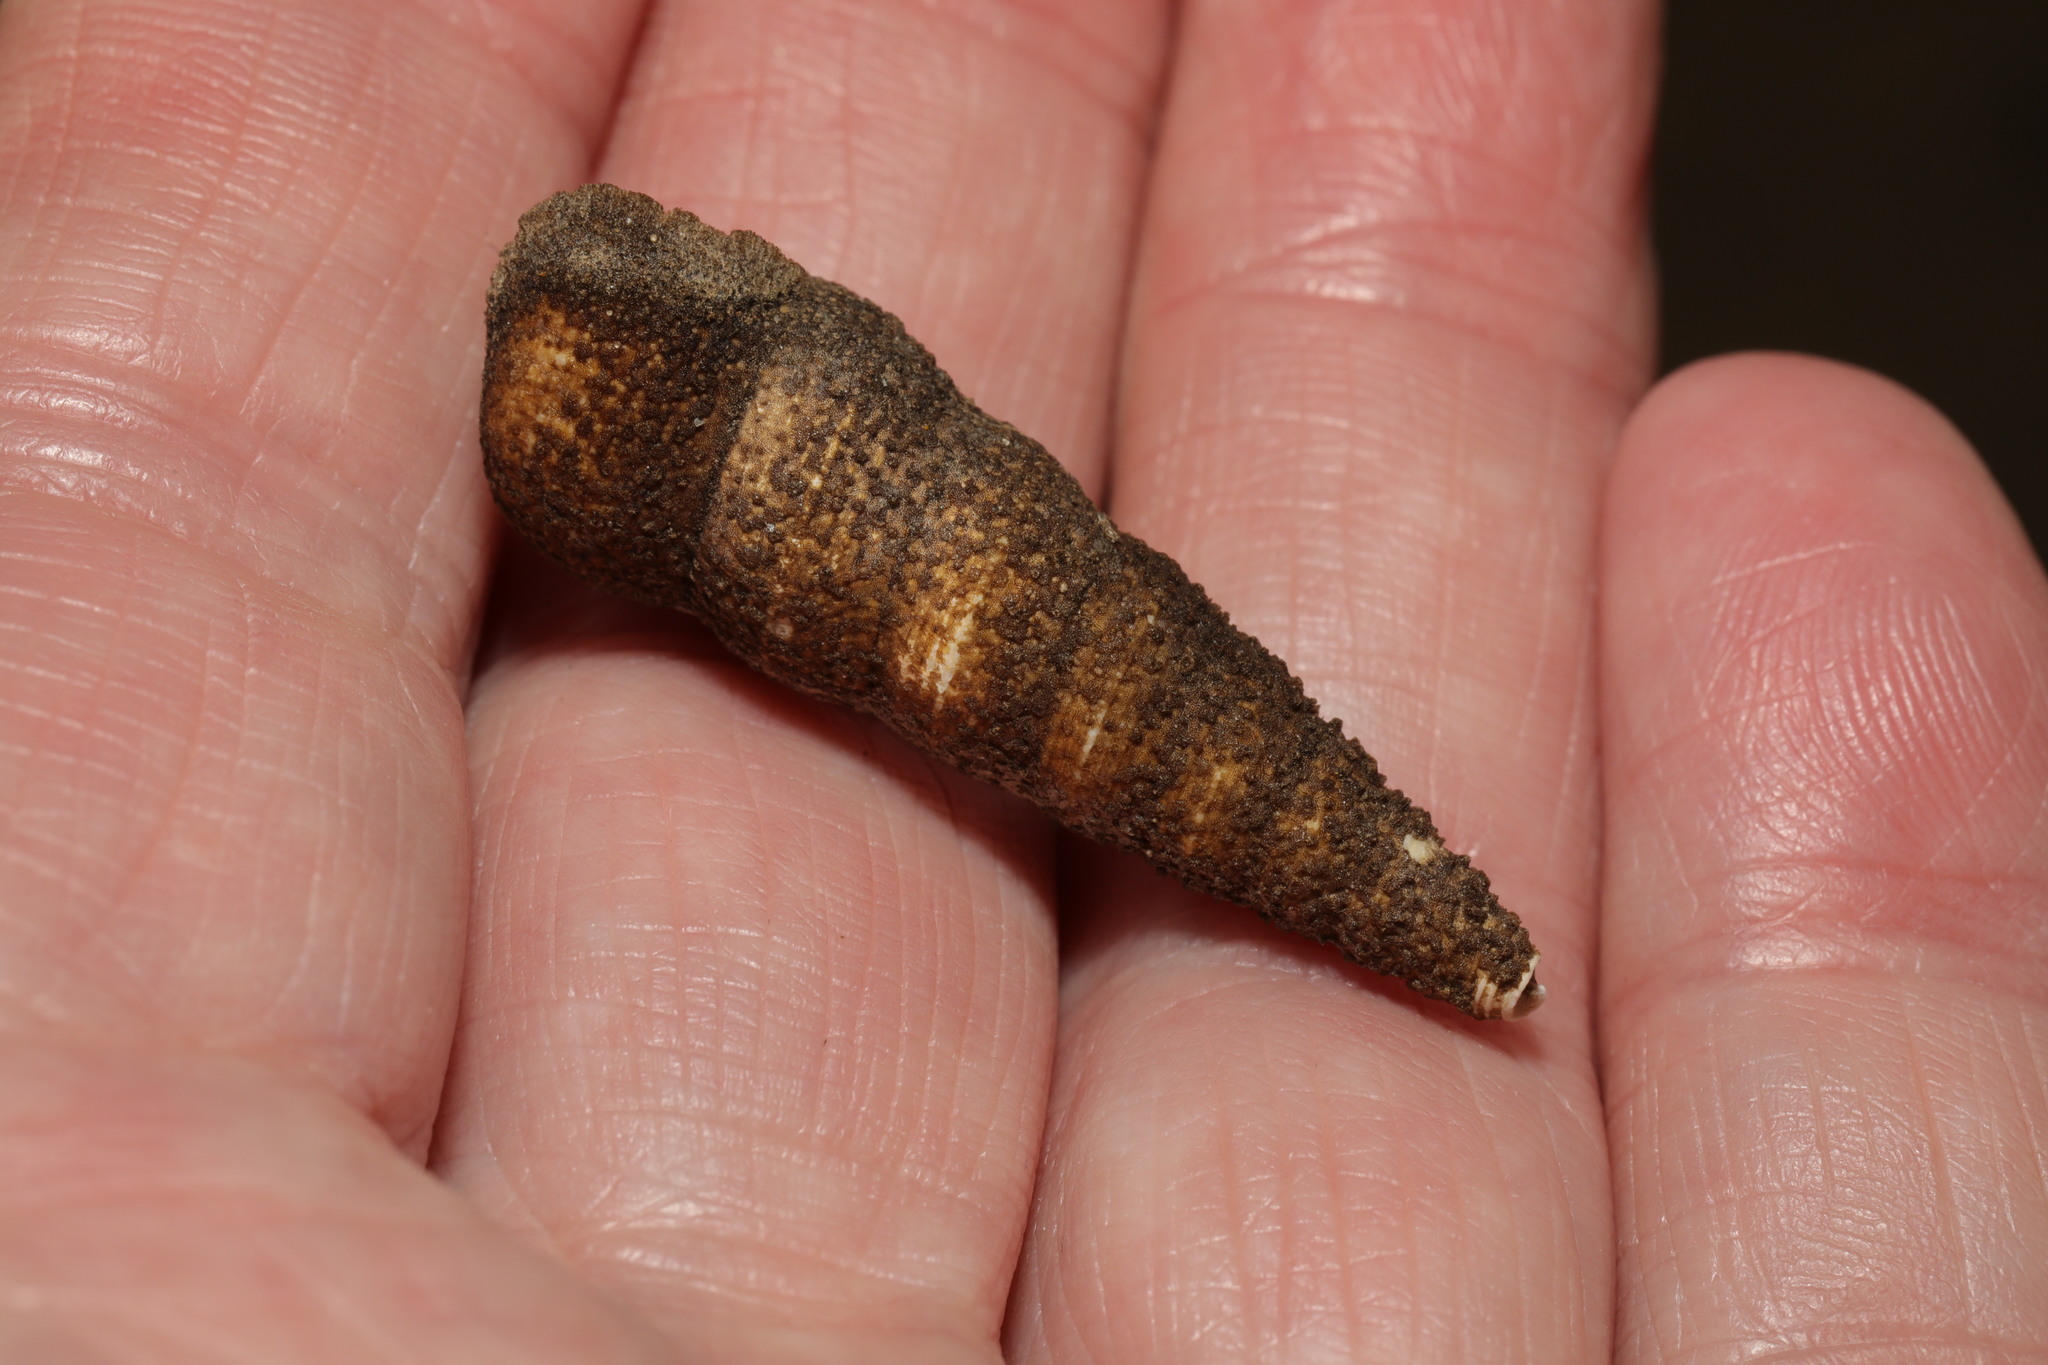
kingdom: Animalia
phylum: Cnidaria
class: Hydrozoa
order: Anthoathecata
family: Hydractiniidae
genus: Hydractinia
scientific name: Hydractinia echinata
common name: Rough hydroid
